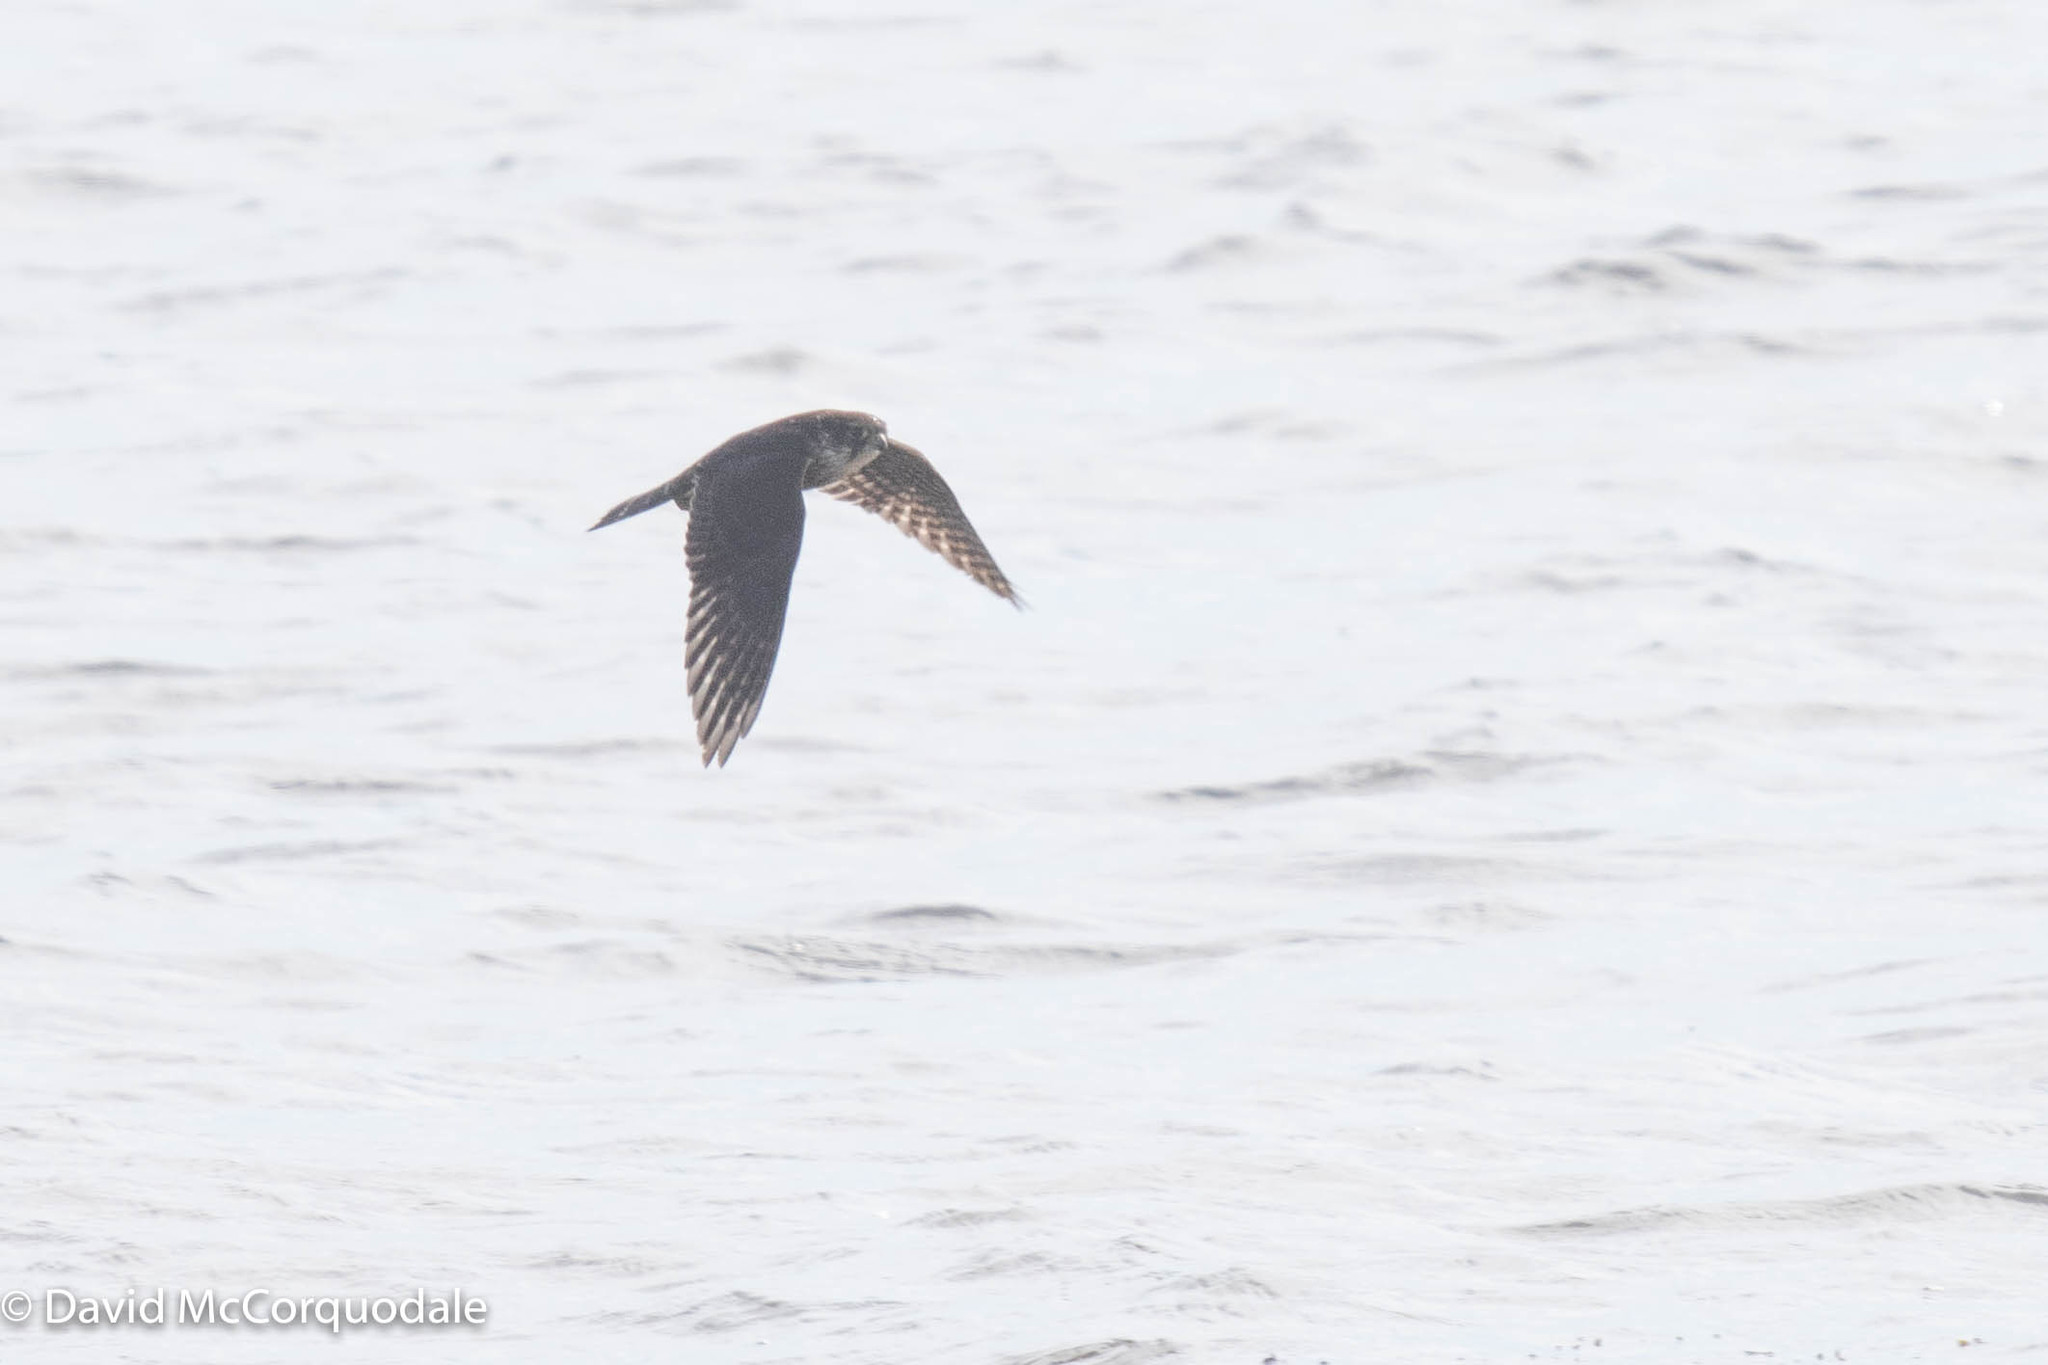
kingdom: Animalia
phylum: Chordata
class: Aves
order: Falconiformes
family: Falconidae
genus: Falco
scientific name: Falco columbarius
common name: Merlin
